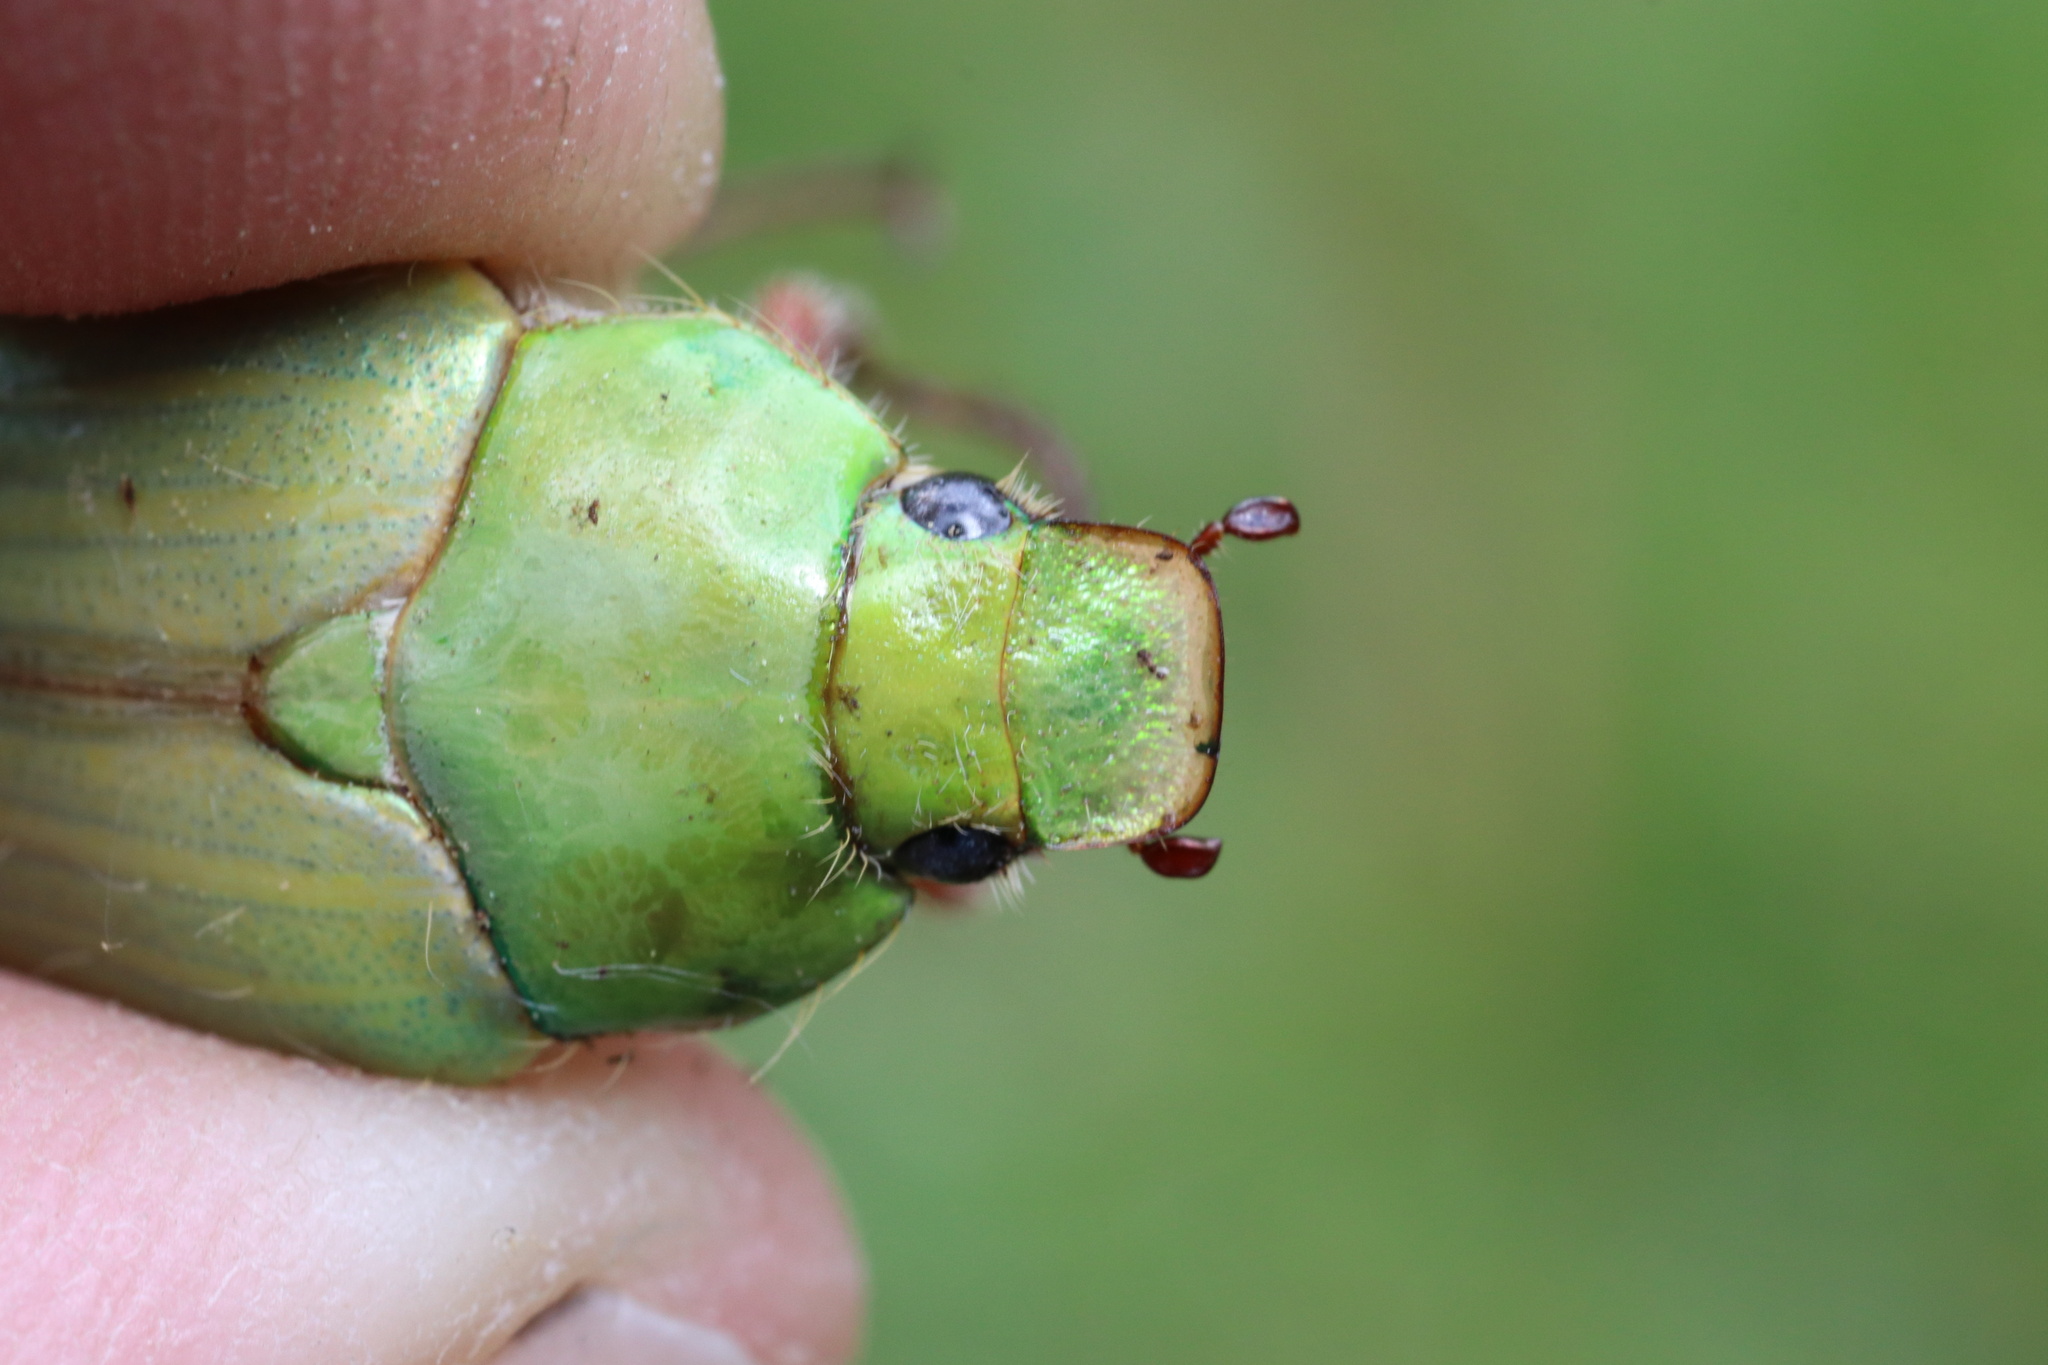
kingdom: Animalia
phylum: Arthropoda
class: Insecta
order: Coleoptera
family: Scarabaeidae
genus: Modialis
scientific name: Modialis prasinella
